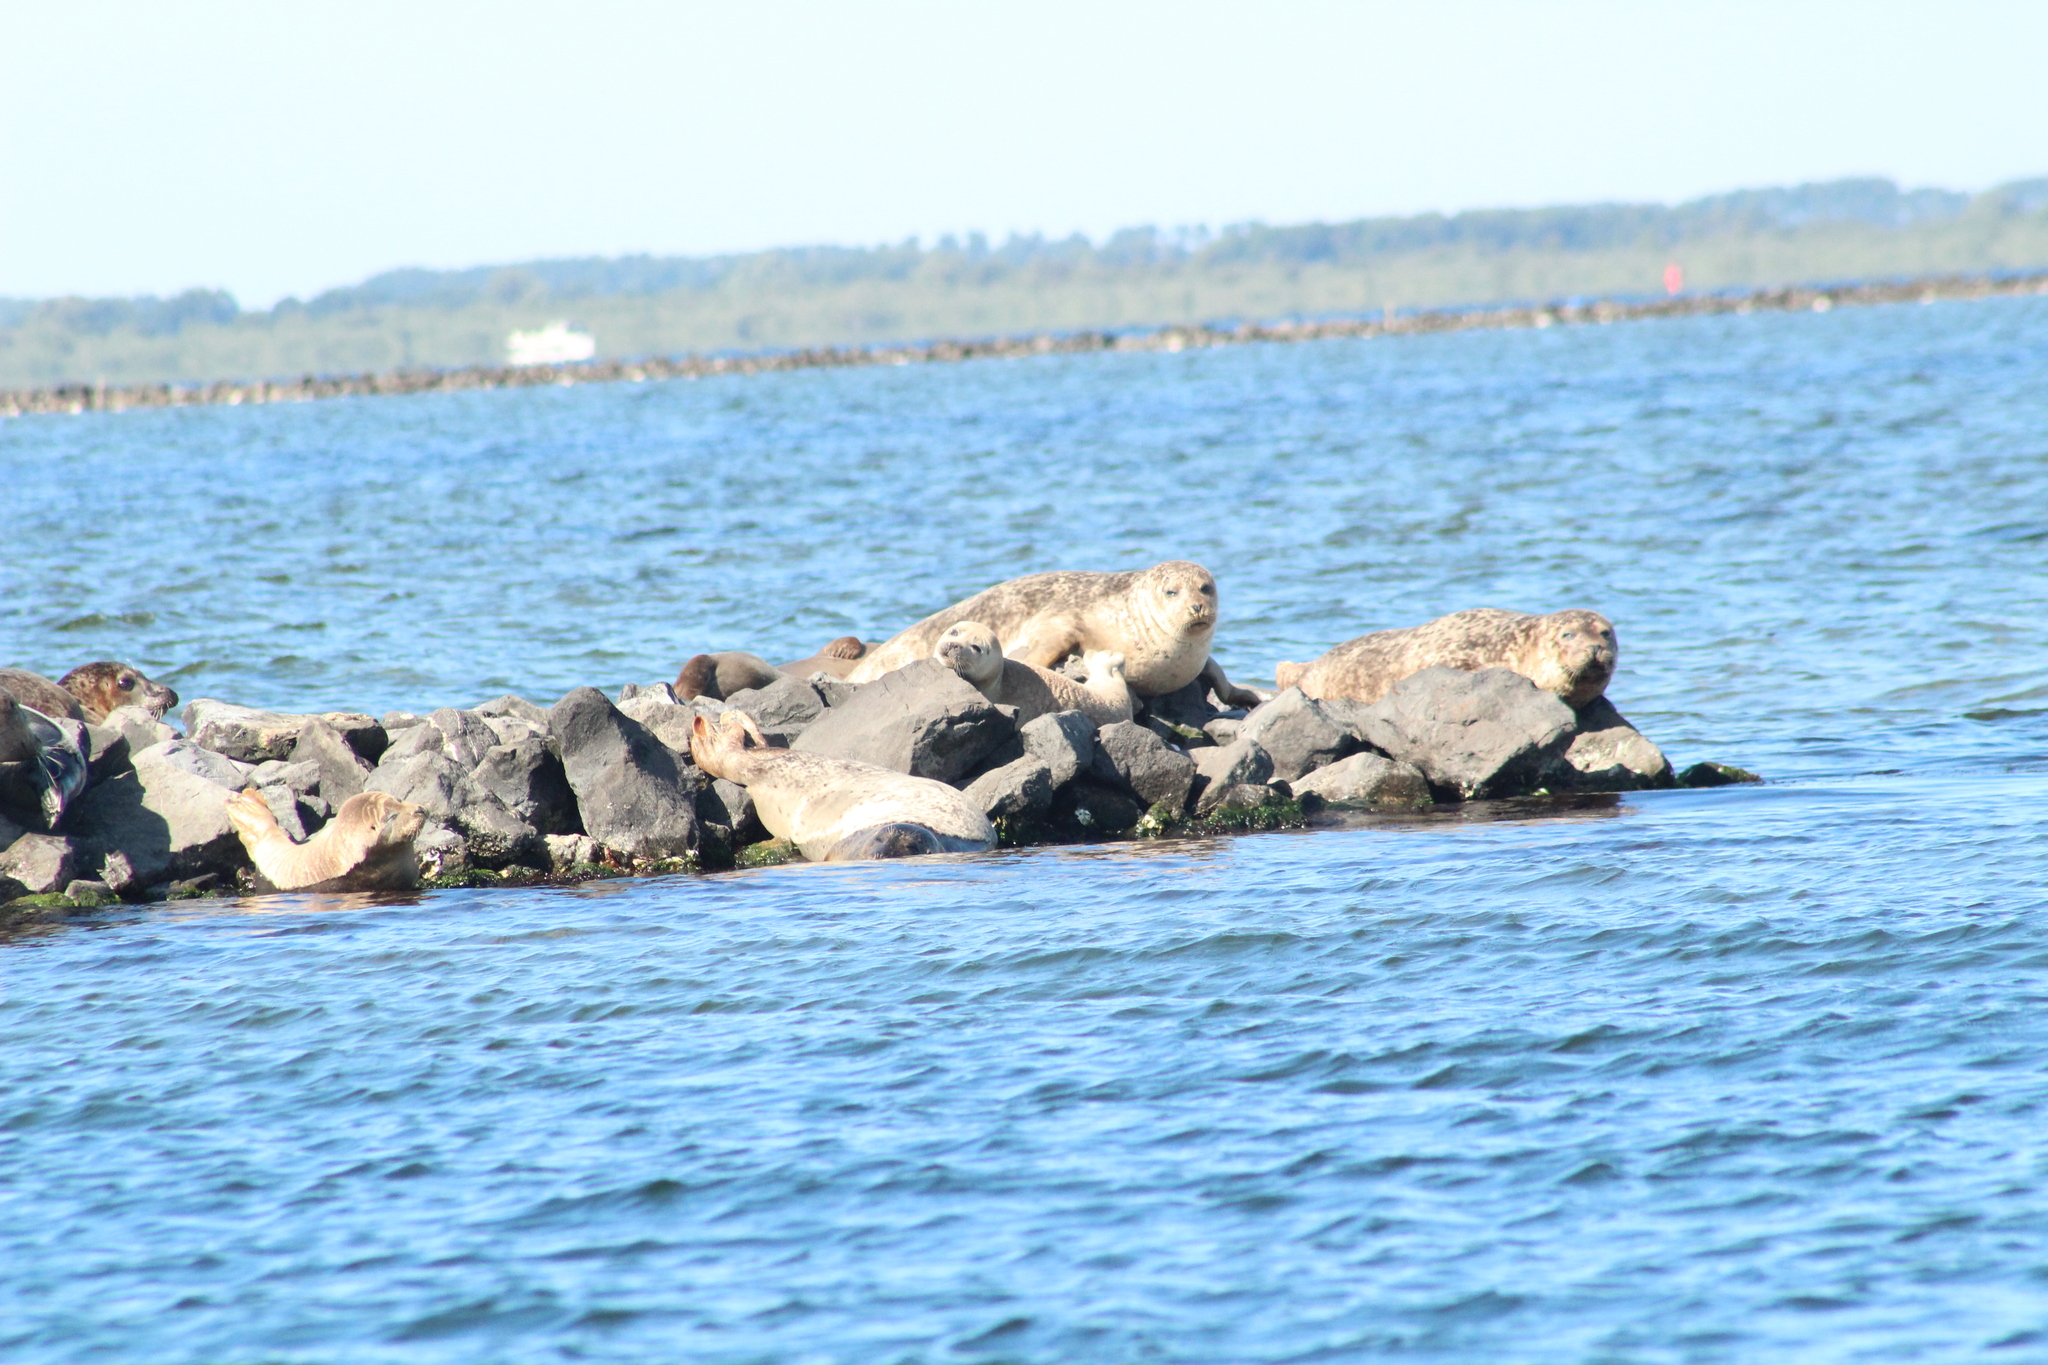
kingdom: Animalia
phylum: Chordata
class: Mammalia
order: Carnivora
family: Phocidae
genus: Phoca
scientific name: Phoca vitulina
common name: Harbor seal
